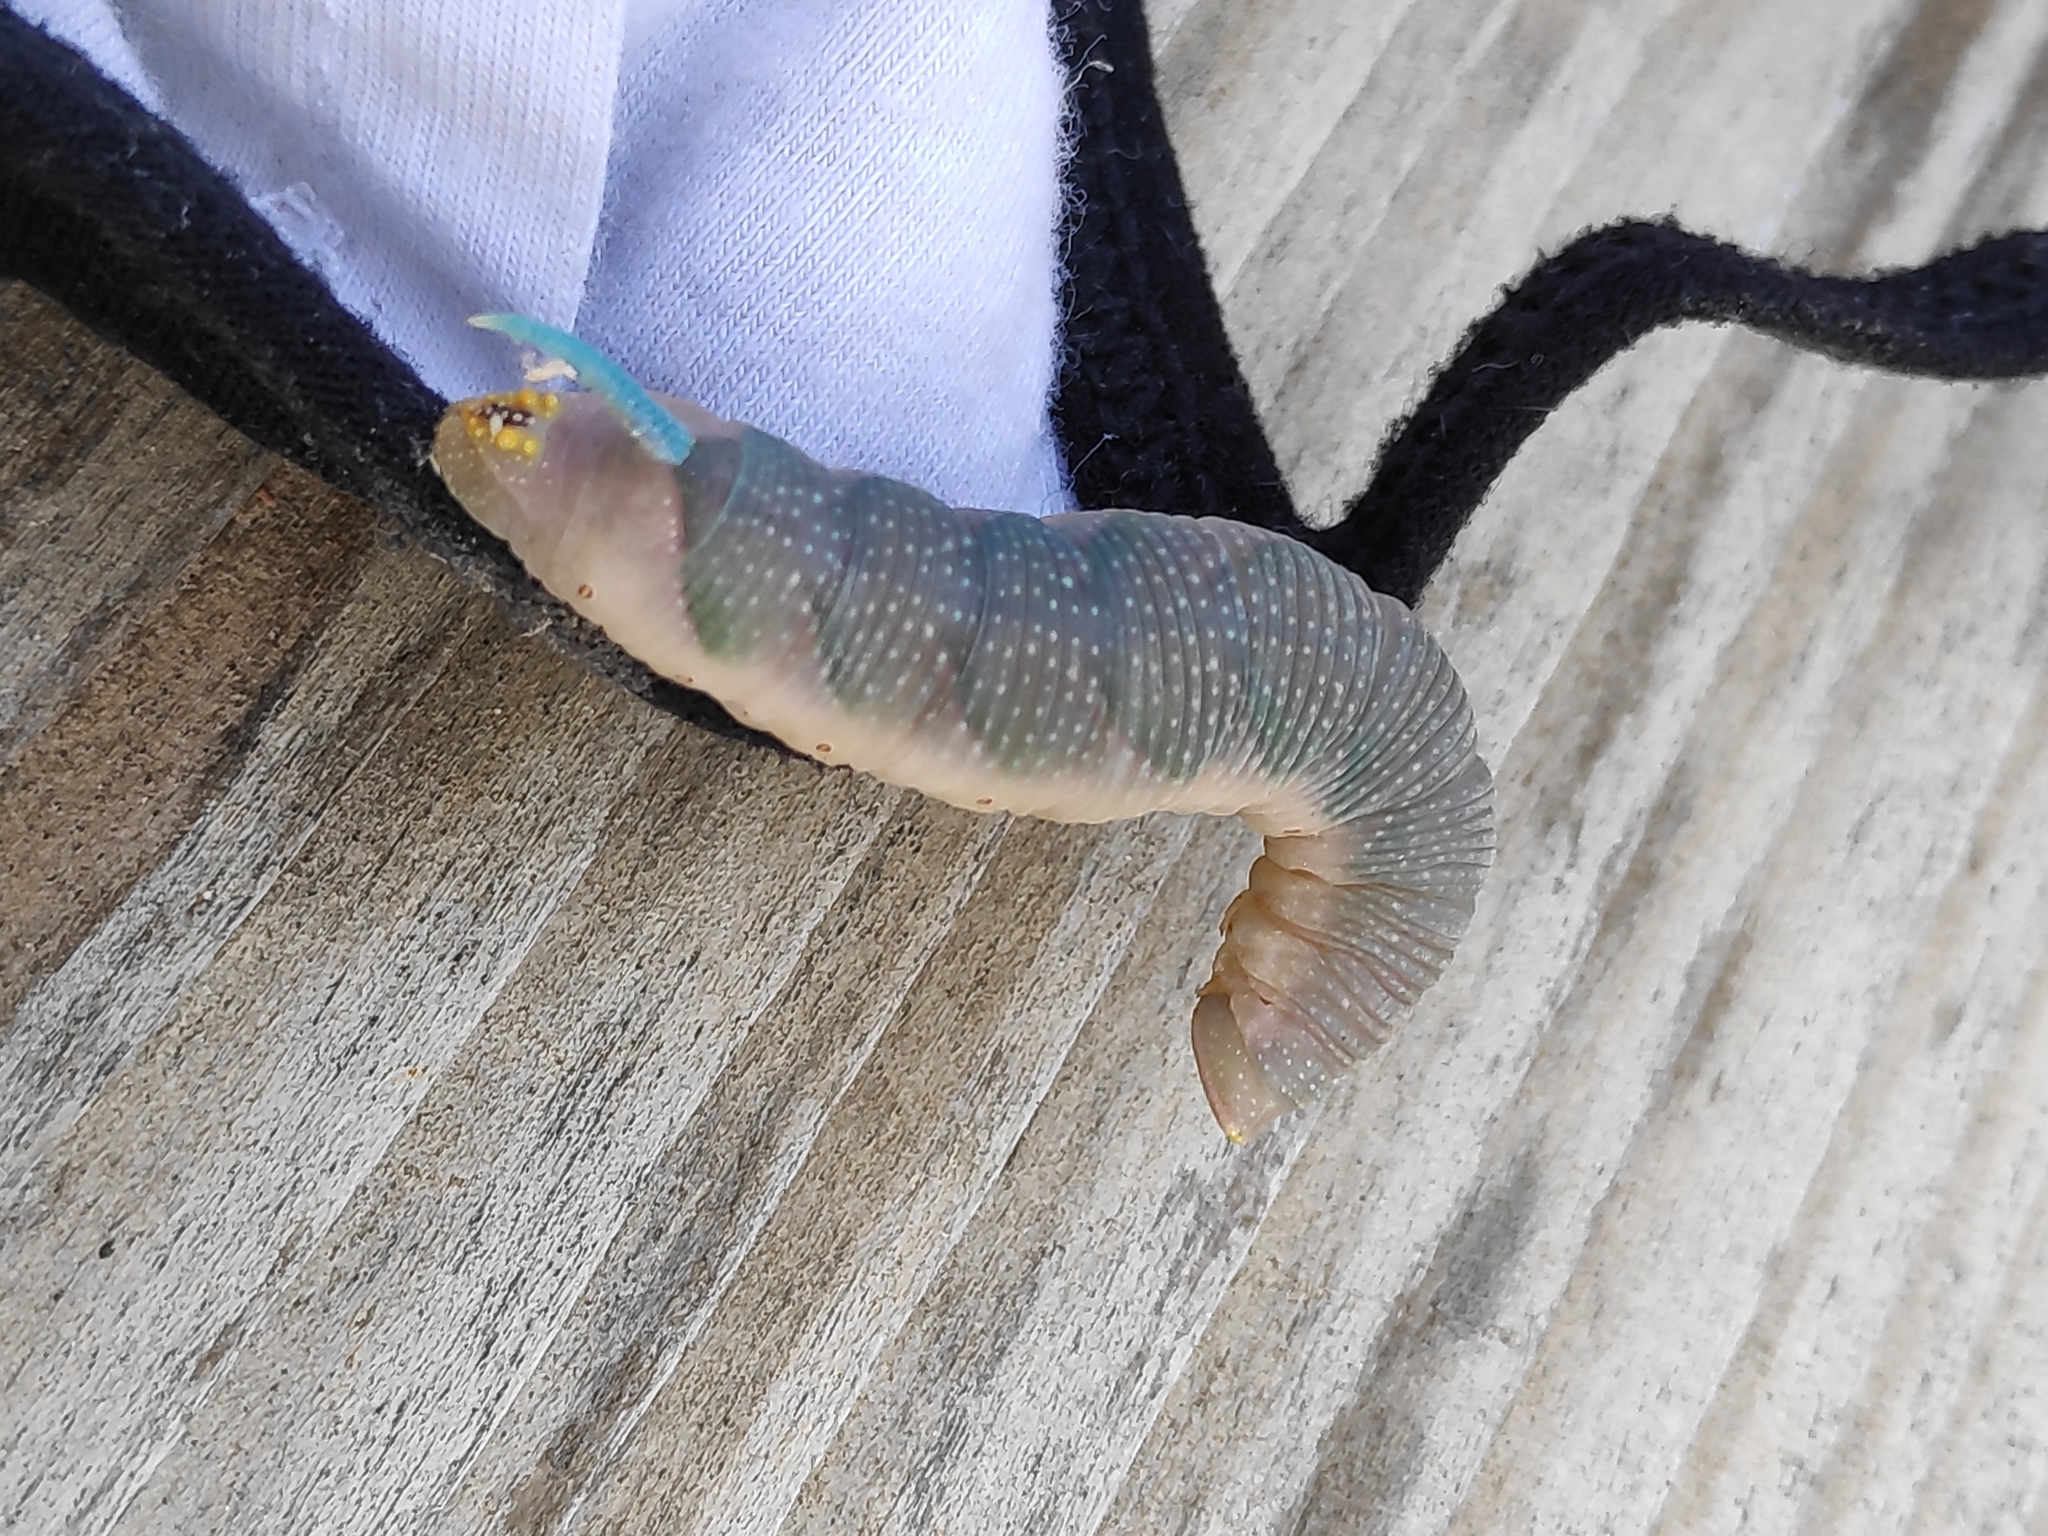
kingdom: Animalia
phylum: Arthropoda
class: Insecta
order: Lepidoptera
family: Sphingidae
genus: Mimas
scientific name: Mimas tiliae
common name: Lime hawk-moth
